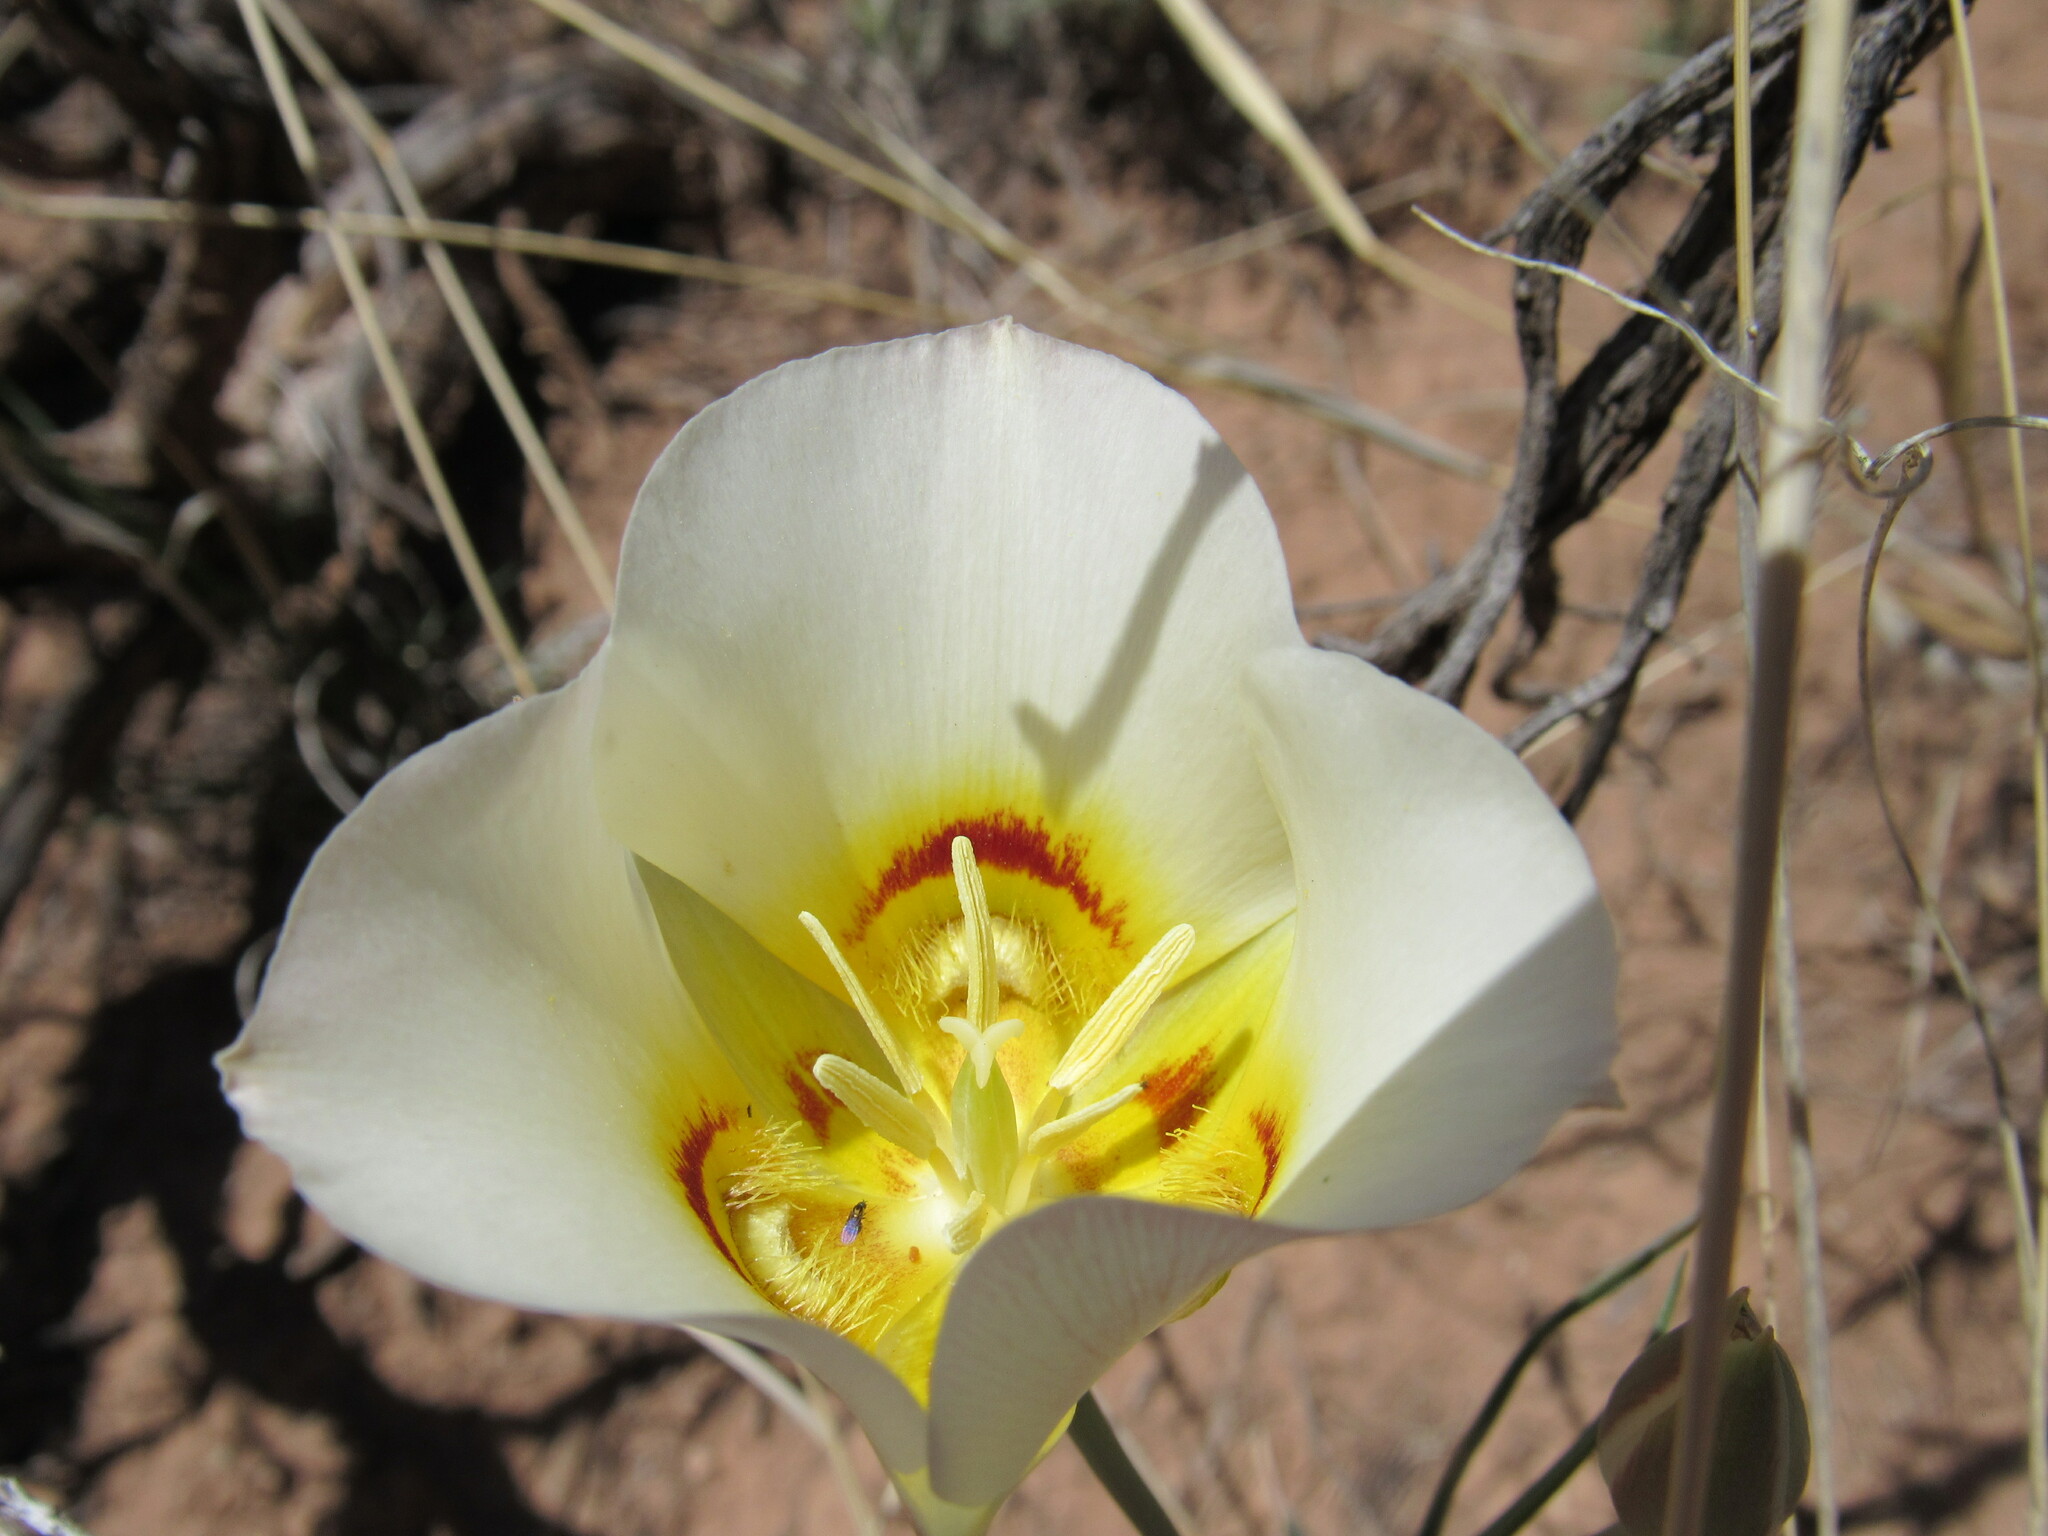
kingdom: Plantae
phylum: Tracheophyta
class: Liliopsida
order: Liliales
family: Liliaceae
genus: Calochortus
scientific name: Calochortus nuttallii
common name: Sego-lily
